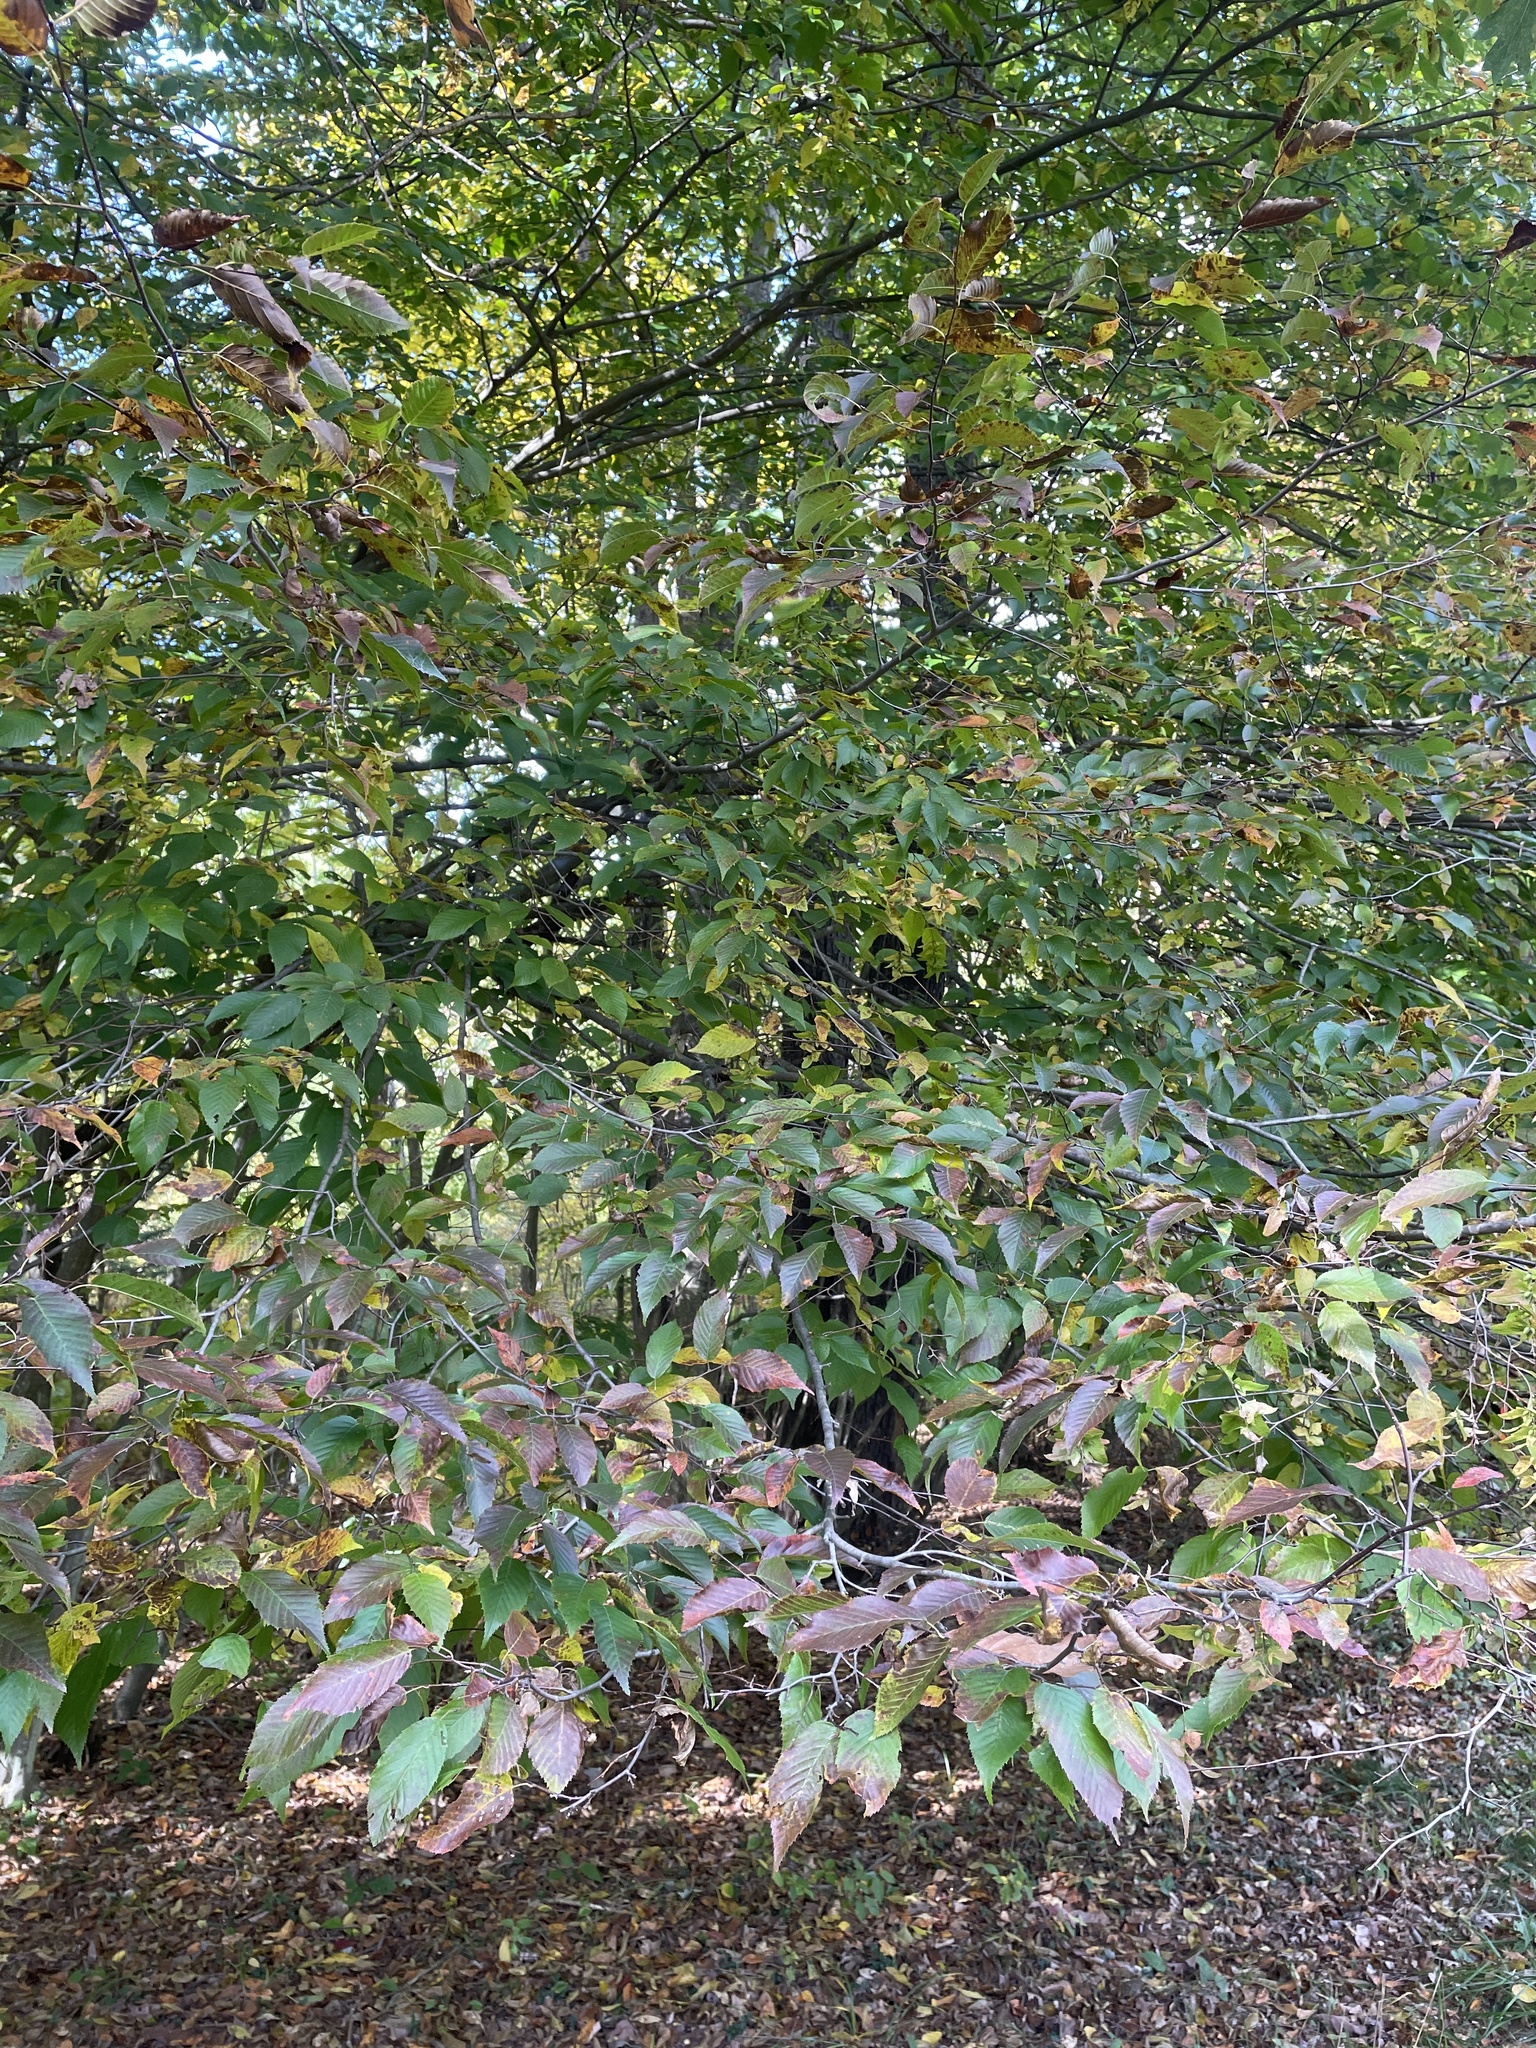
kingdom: Plantae
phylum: Tracheophyta
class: Magnoliopsida
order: Fagales
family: Betulaceae
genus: Carpinus
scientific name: Carpinus caroliniana
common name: American hornbeam
